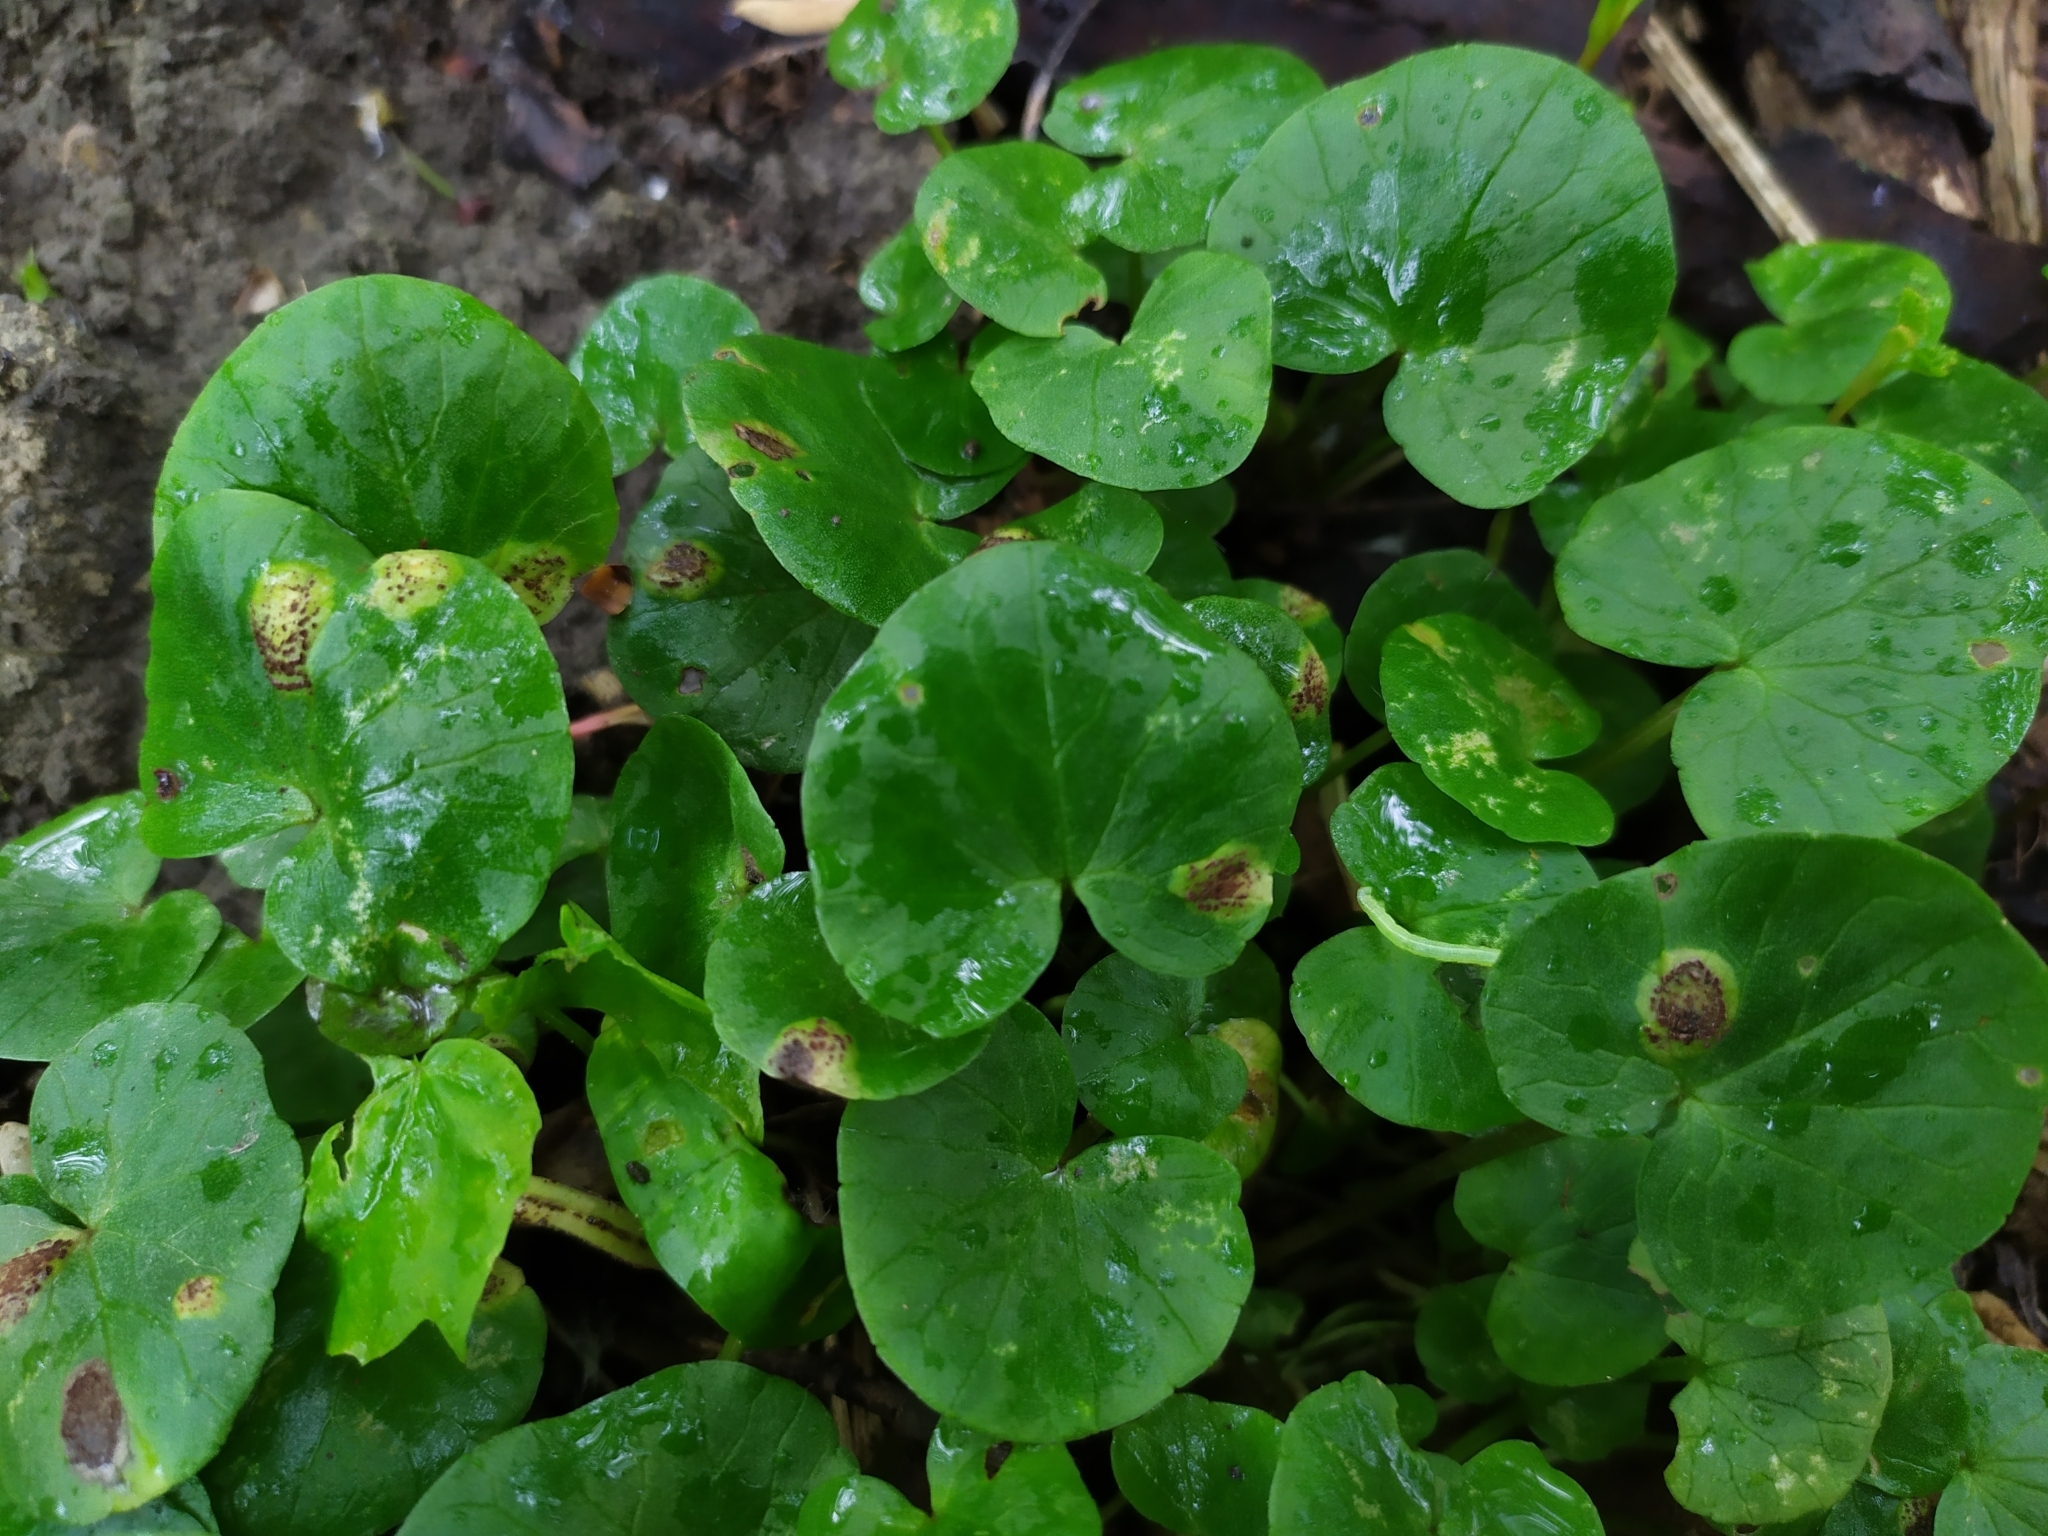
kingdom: Fungi
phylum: Basidiomycota
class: Pucciniomycetes
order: Pucciniales
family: Pucciniaceae
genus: Uromyces
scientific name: Uromyces ficariae
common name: Bitter chocolate rust
